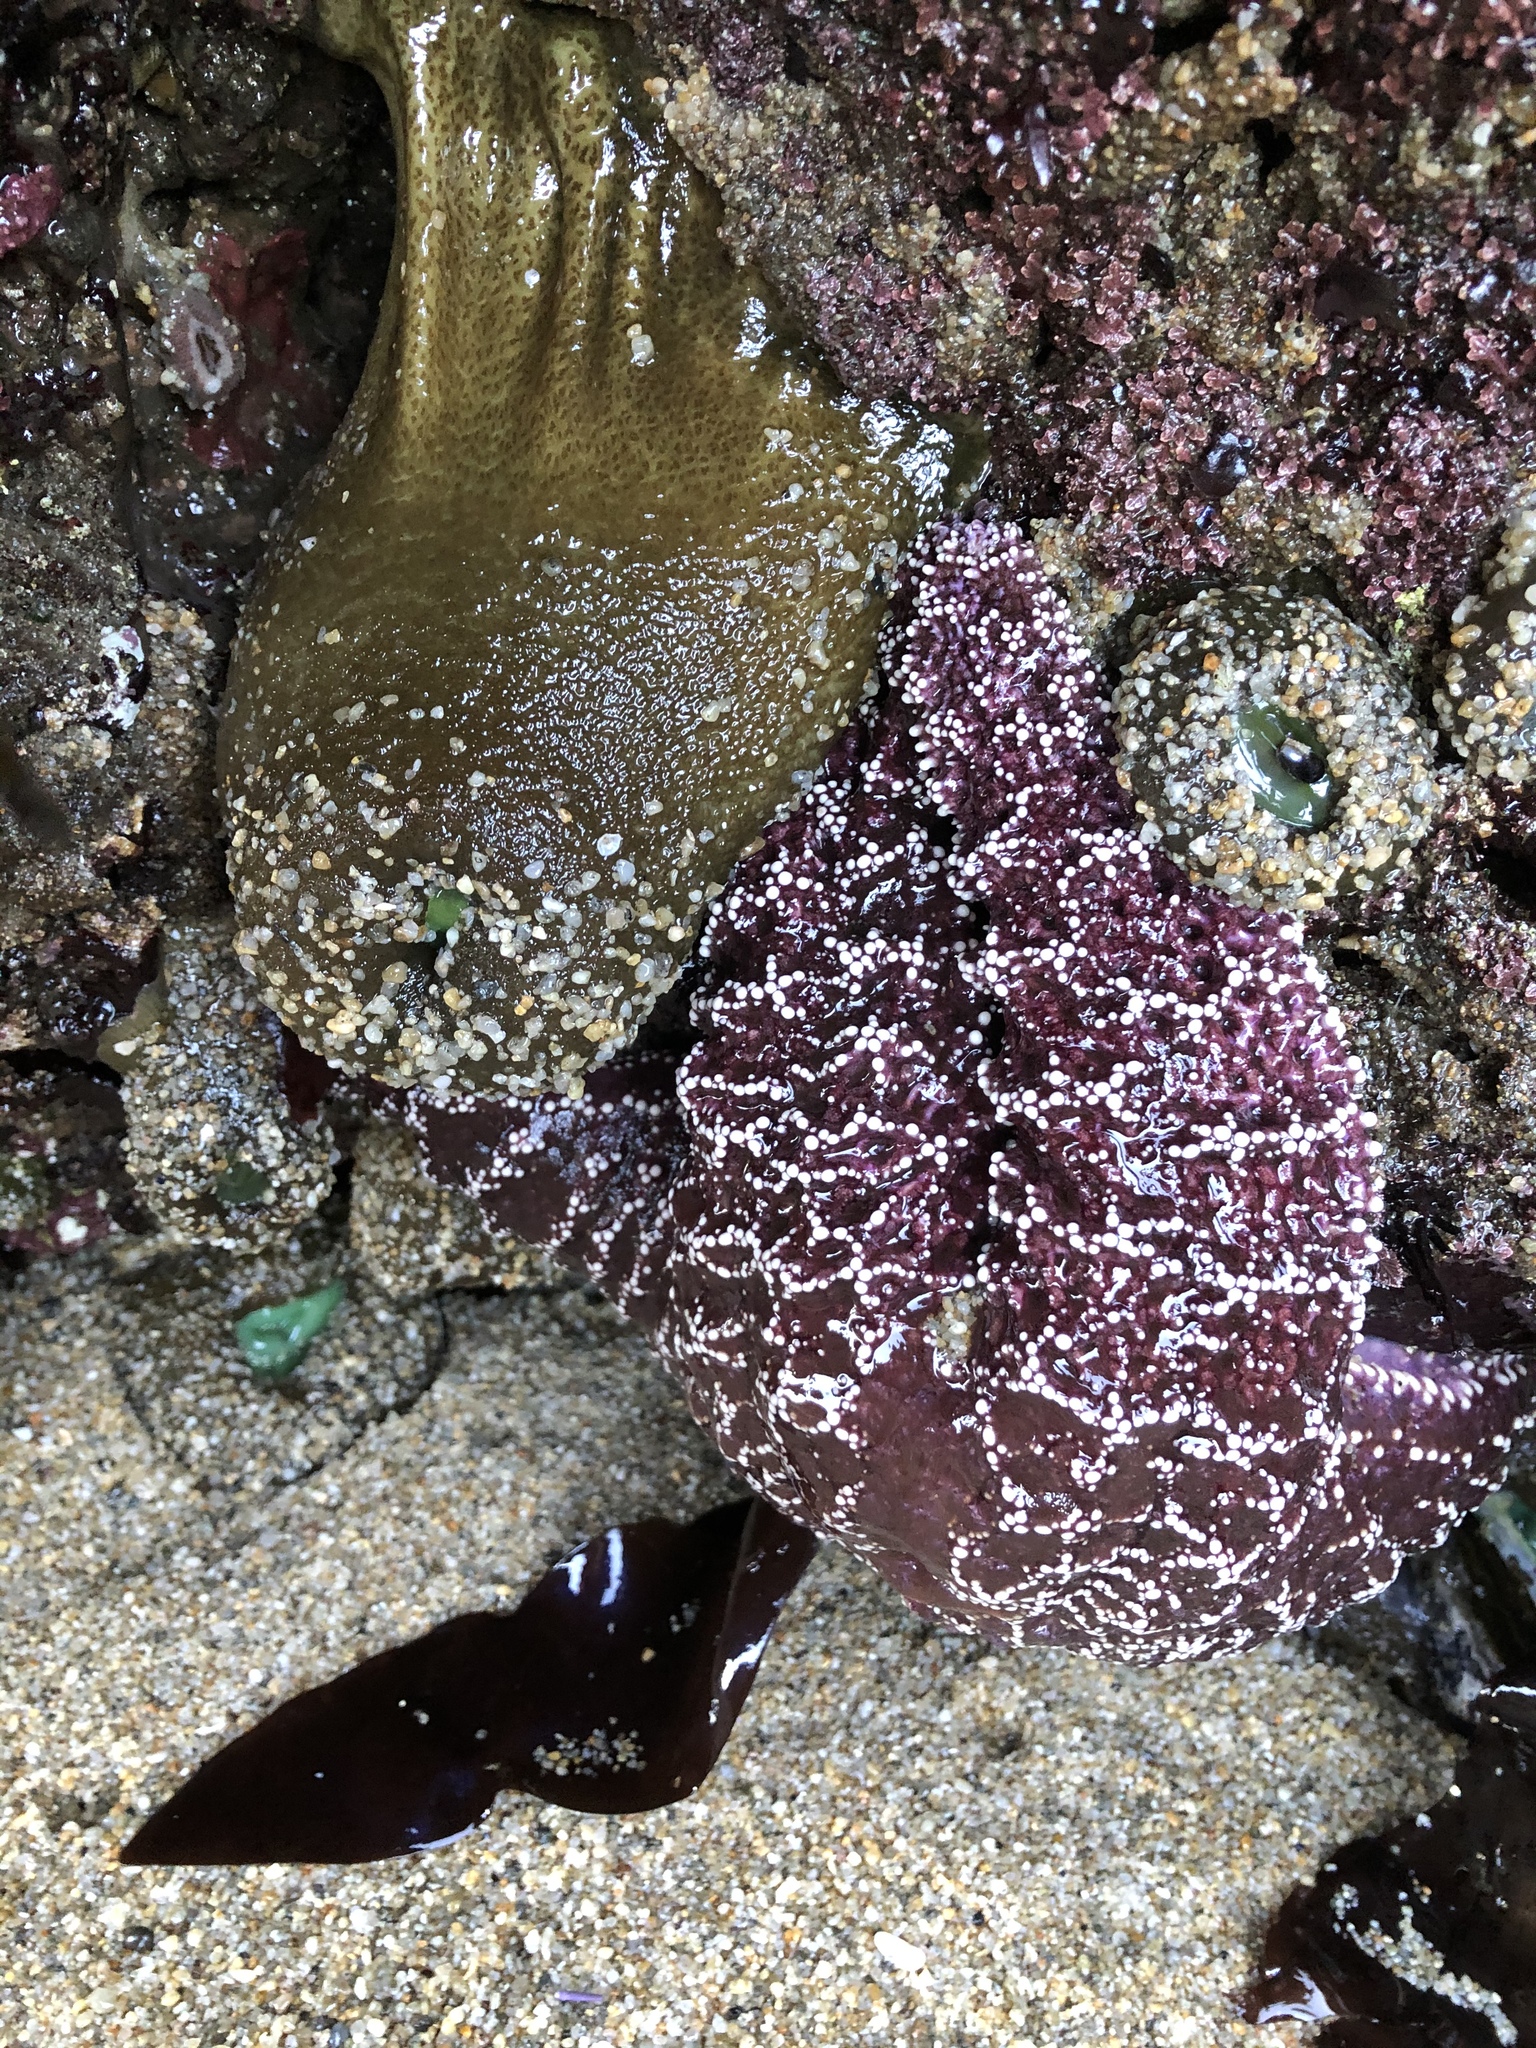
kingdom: Animalia
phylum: Echinodermata
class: Asteroidea
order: Forcipulatida
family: Asteriidae
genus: Pisaster
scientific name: Pisaster ochraceus
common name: Ochre stars
